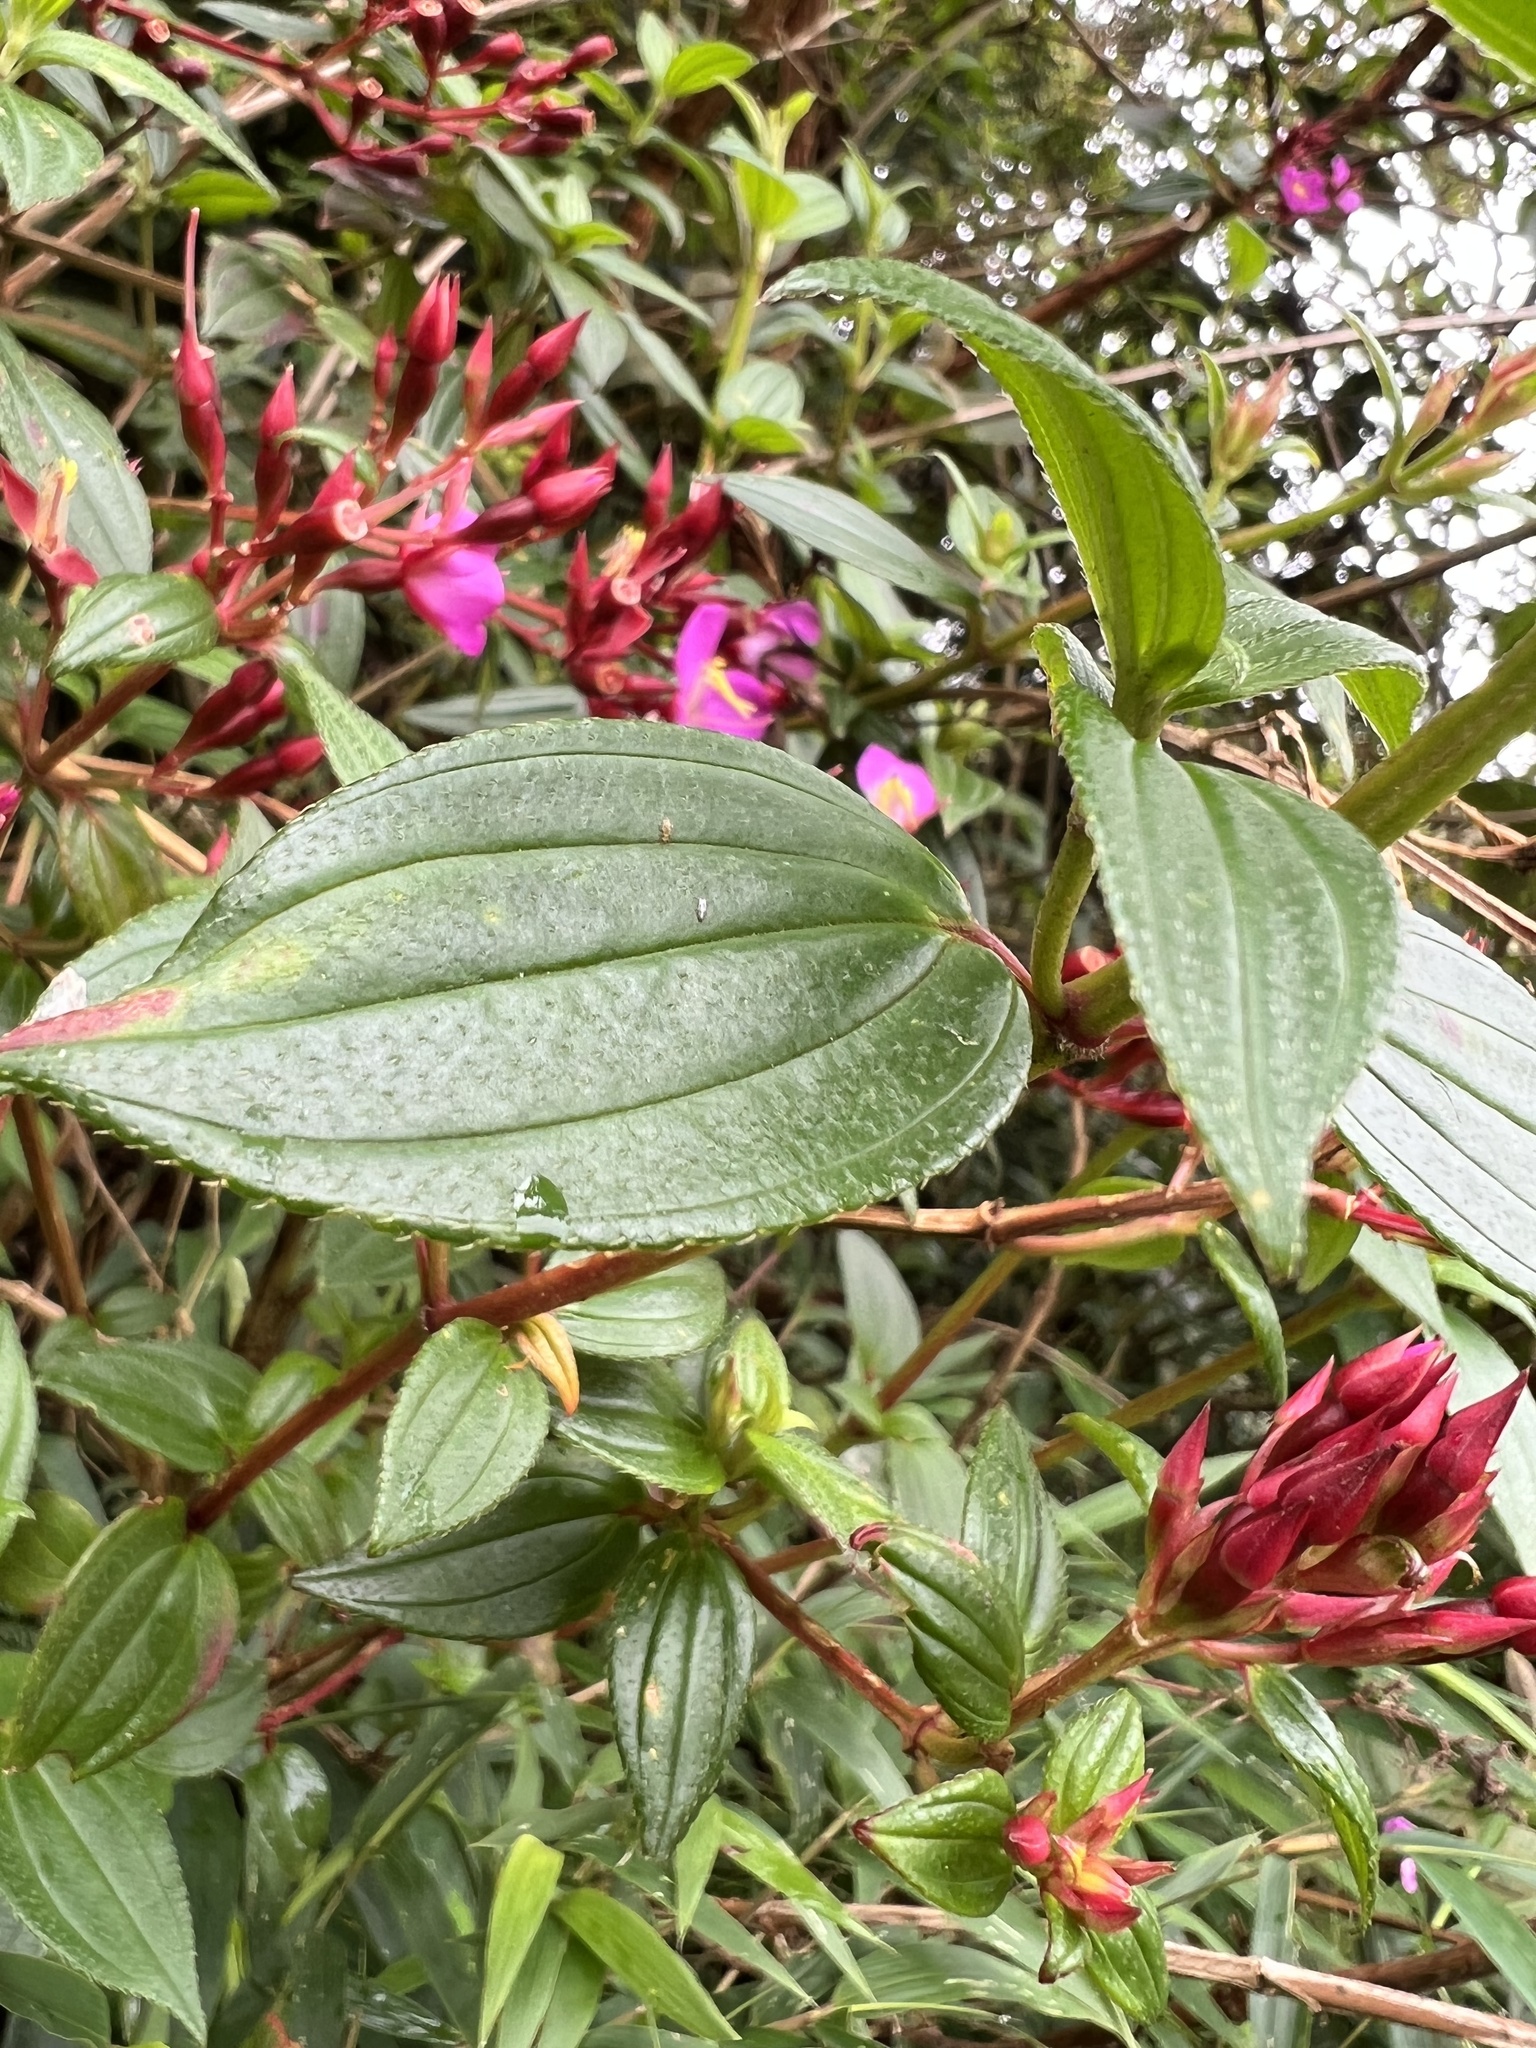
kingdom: Plantae
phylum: Tracheophyta
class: Magnoliopsida
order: Myrtales
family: Melastomataceae
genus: Monochaetum
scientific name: Monochaetum meridense
